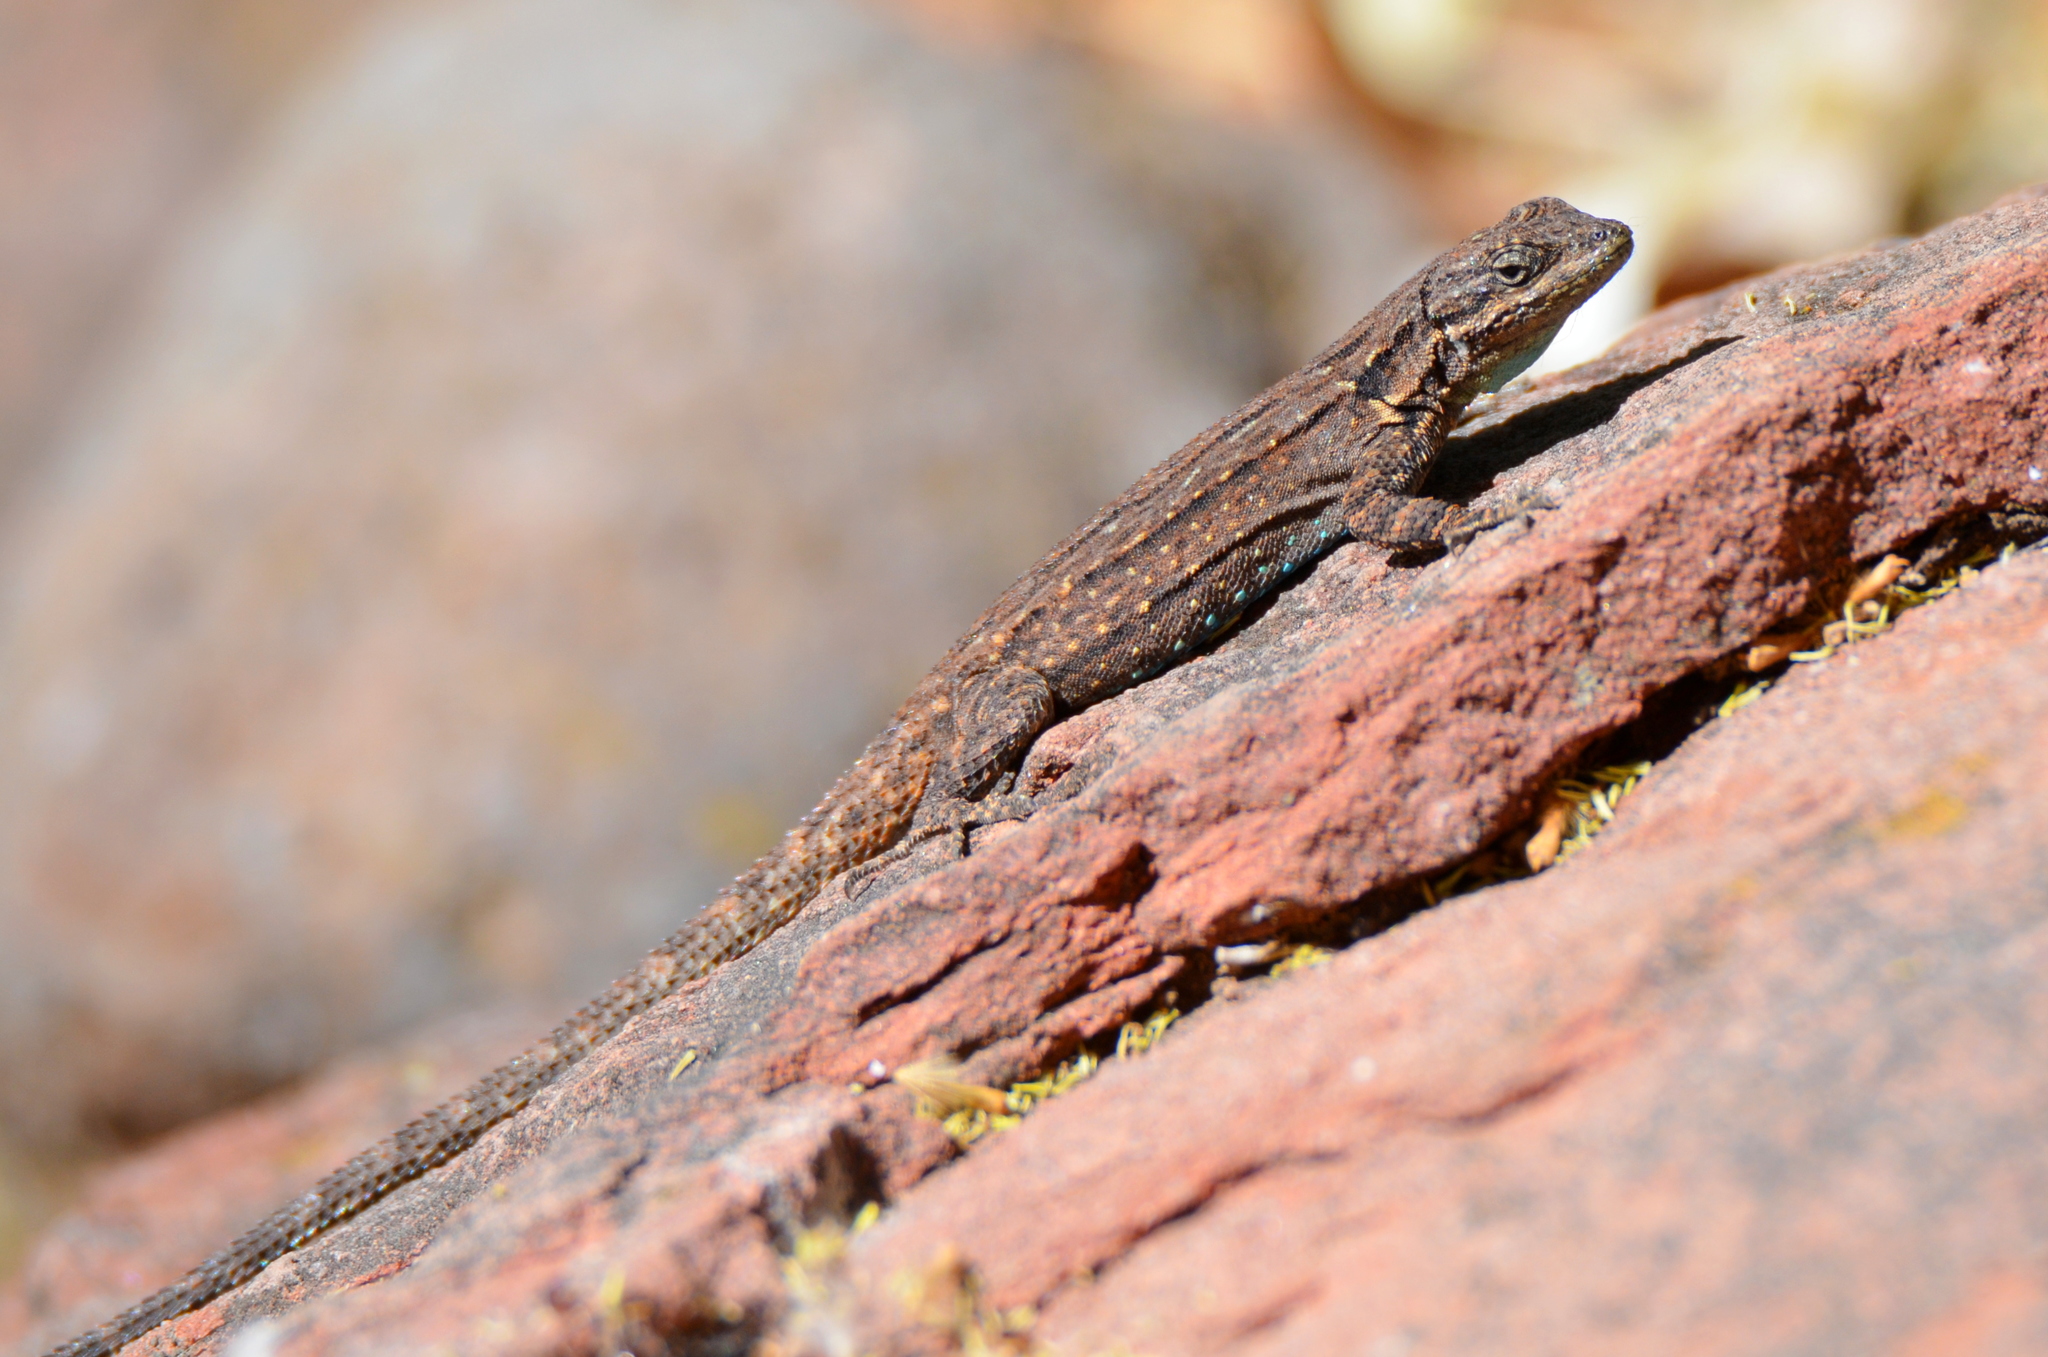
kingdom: Animalia
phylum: Chordata
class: Squamata
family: Phrynosomatidae
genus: Urosaurus
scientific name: Urosaurus ornatus
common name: Ornate tree lizard
